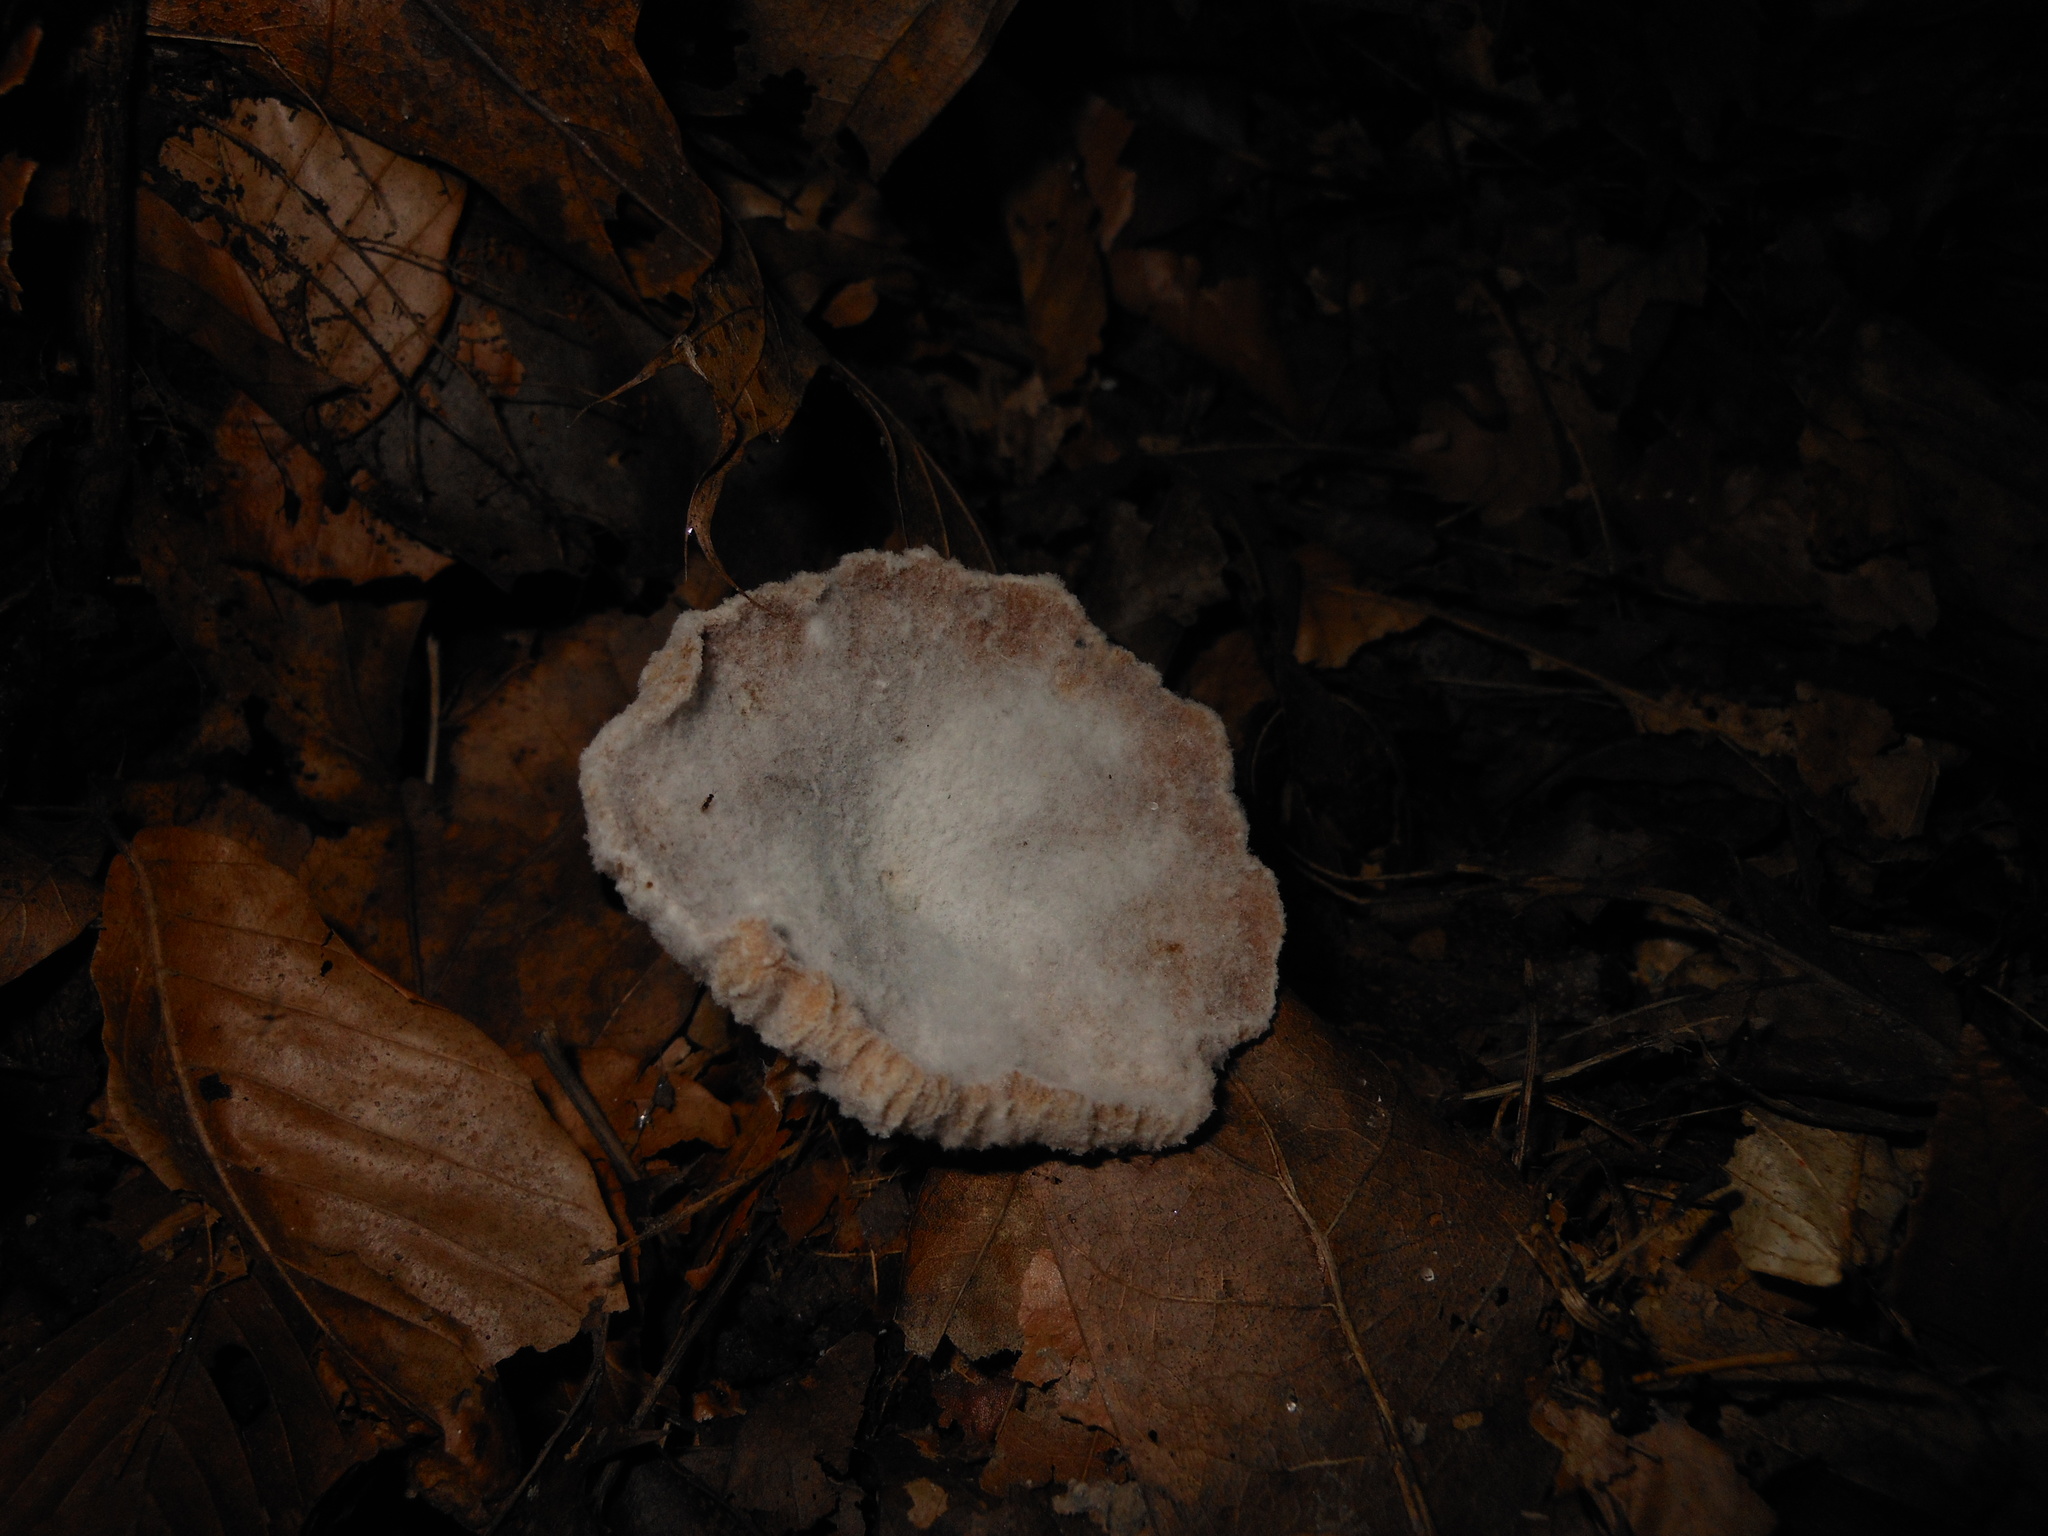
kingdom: Fungi
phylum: Ascomycota
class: Sordariomycetes
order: Hypocreales
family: Hypocreaceae
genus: Hypomyces
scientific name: Hypomyces ochraceus
